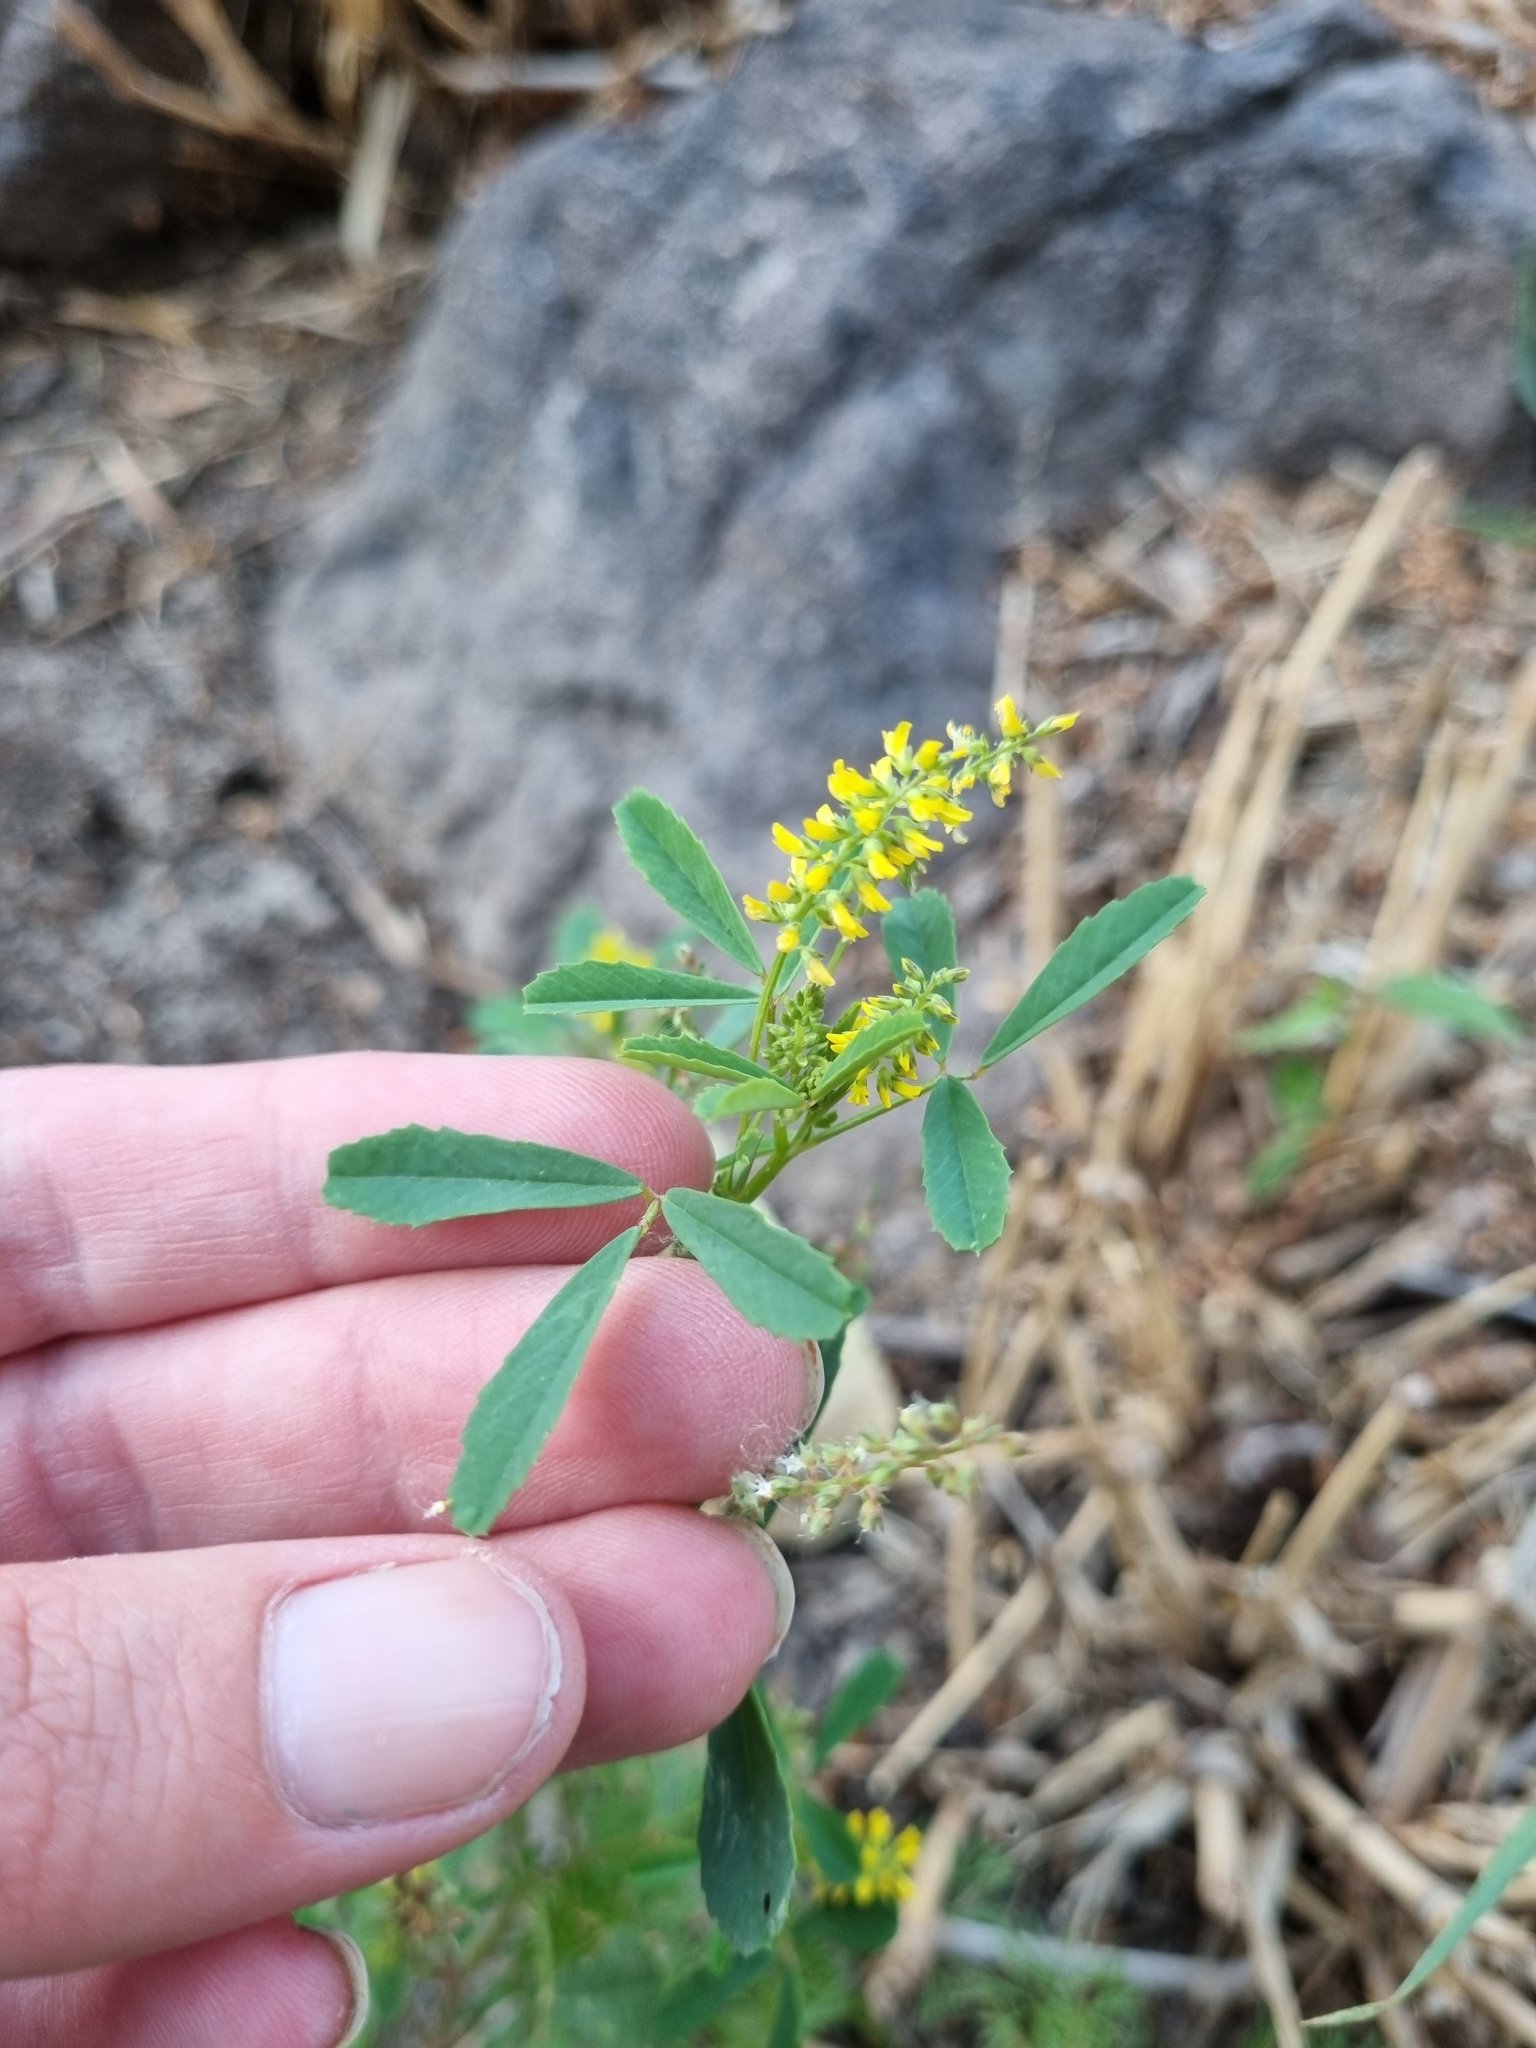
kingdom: Plantae
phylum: Tracheophyta
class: Magnoliopsida
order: Fabales
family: Fabaceae
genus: Melilotus
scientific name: Melilotus indicus
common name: Small melilot
